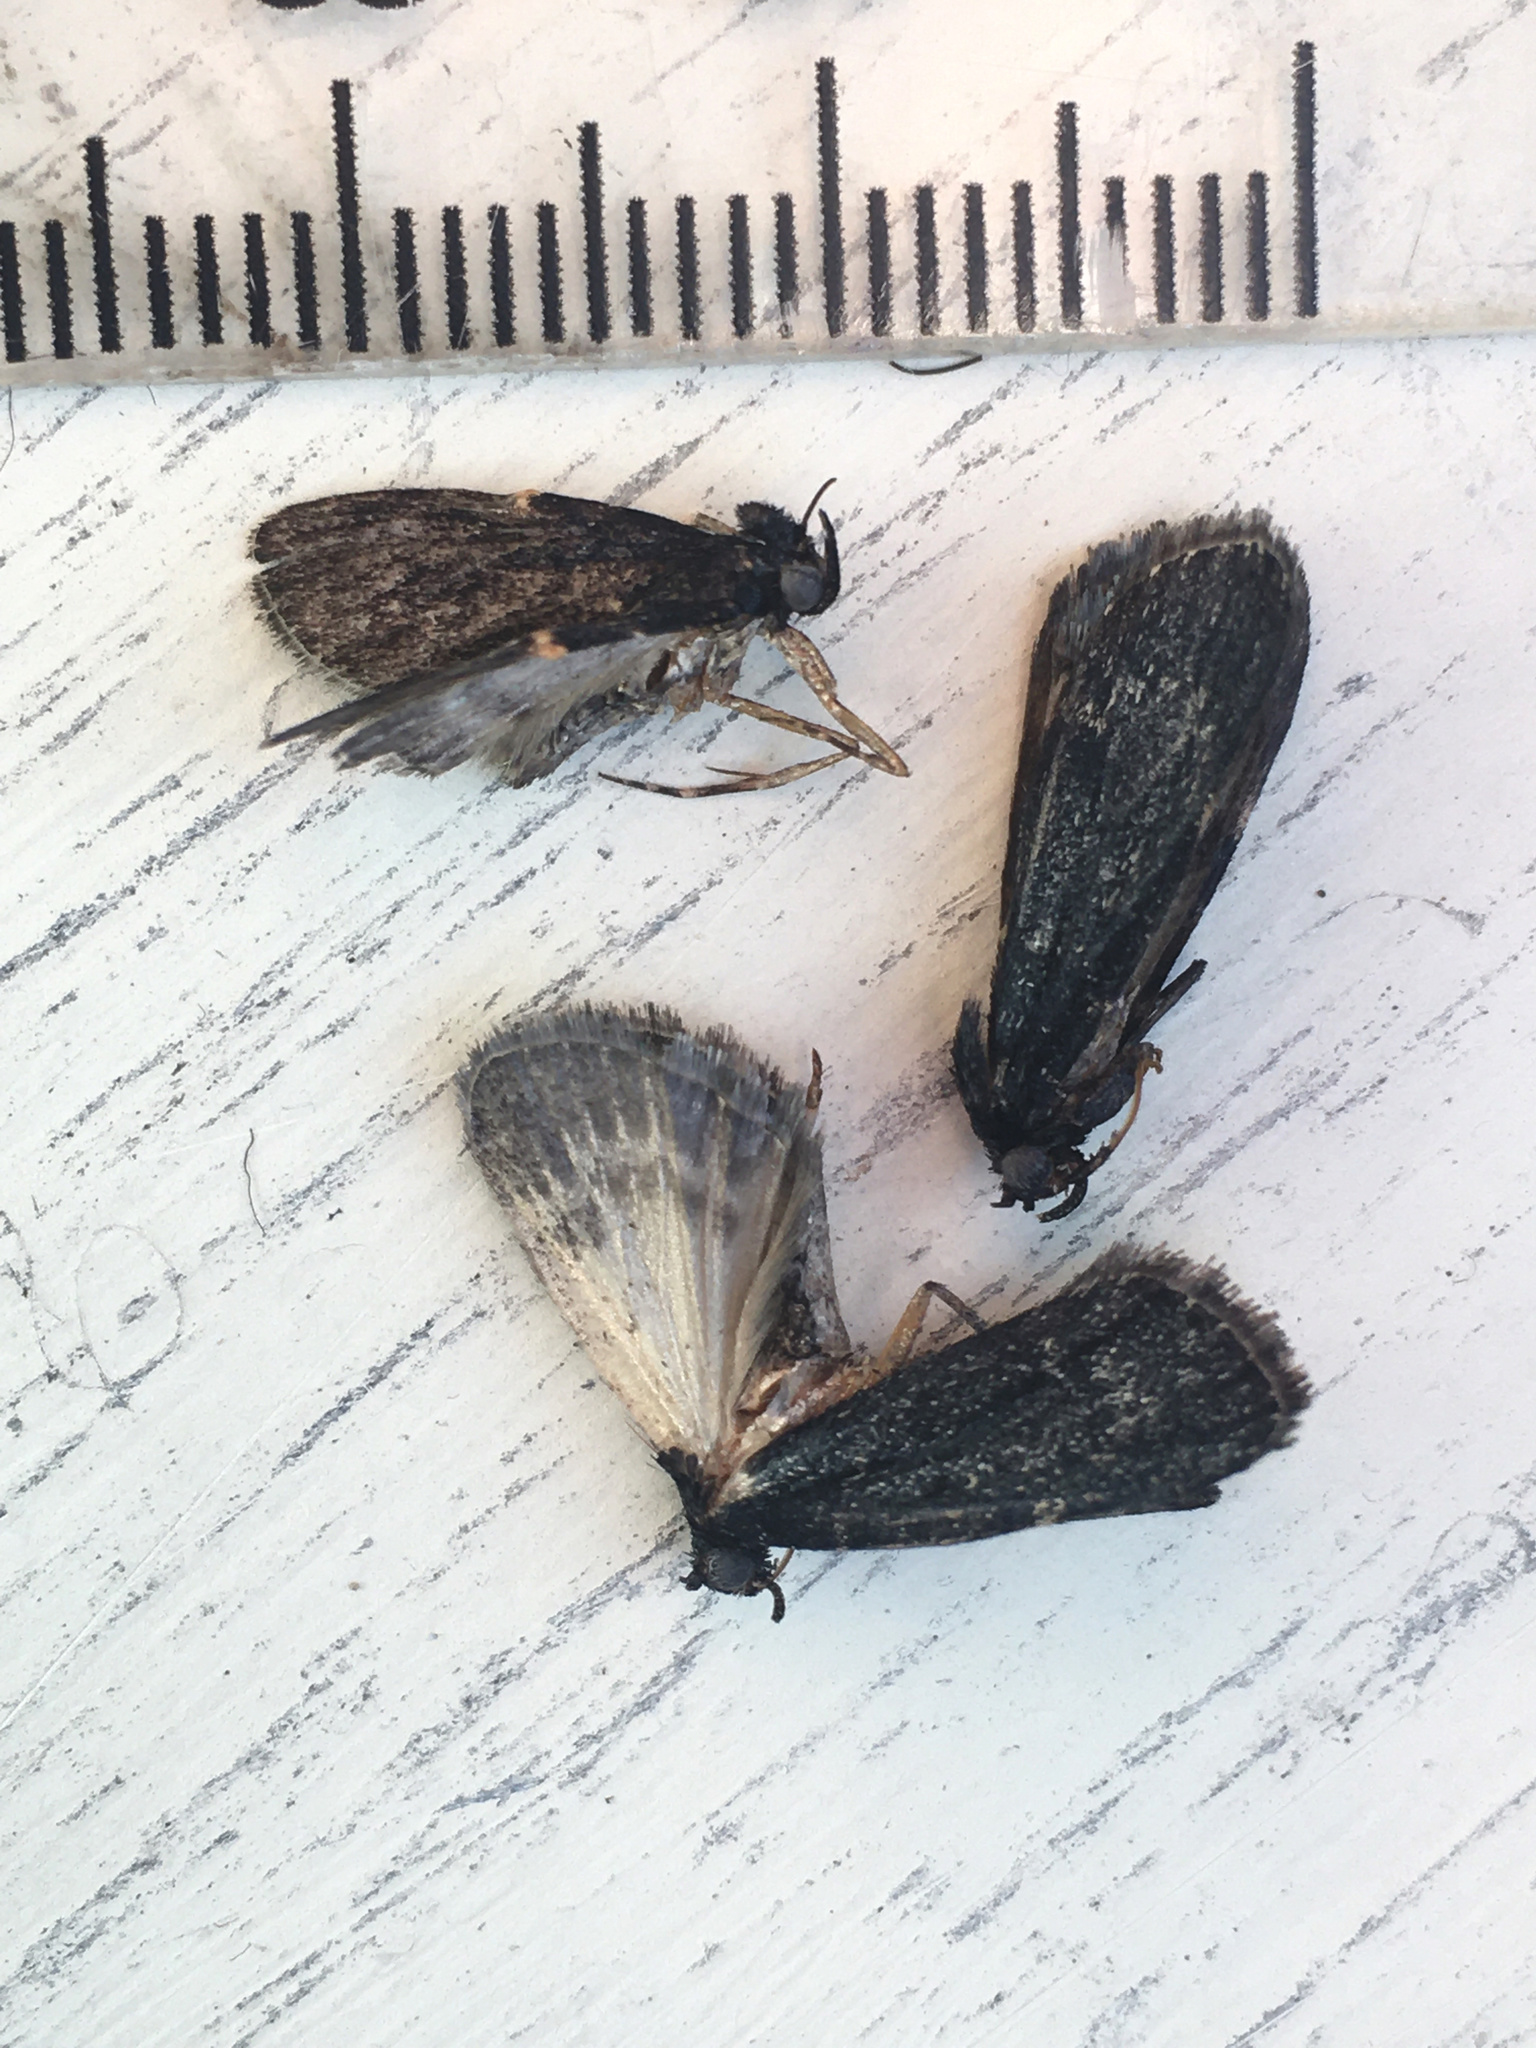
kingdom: Animalia
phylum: Arthropoda
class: Insecta
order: Lepidoptera
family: Pyralidae
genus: Stericta
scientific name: Stericta carbonalis
